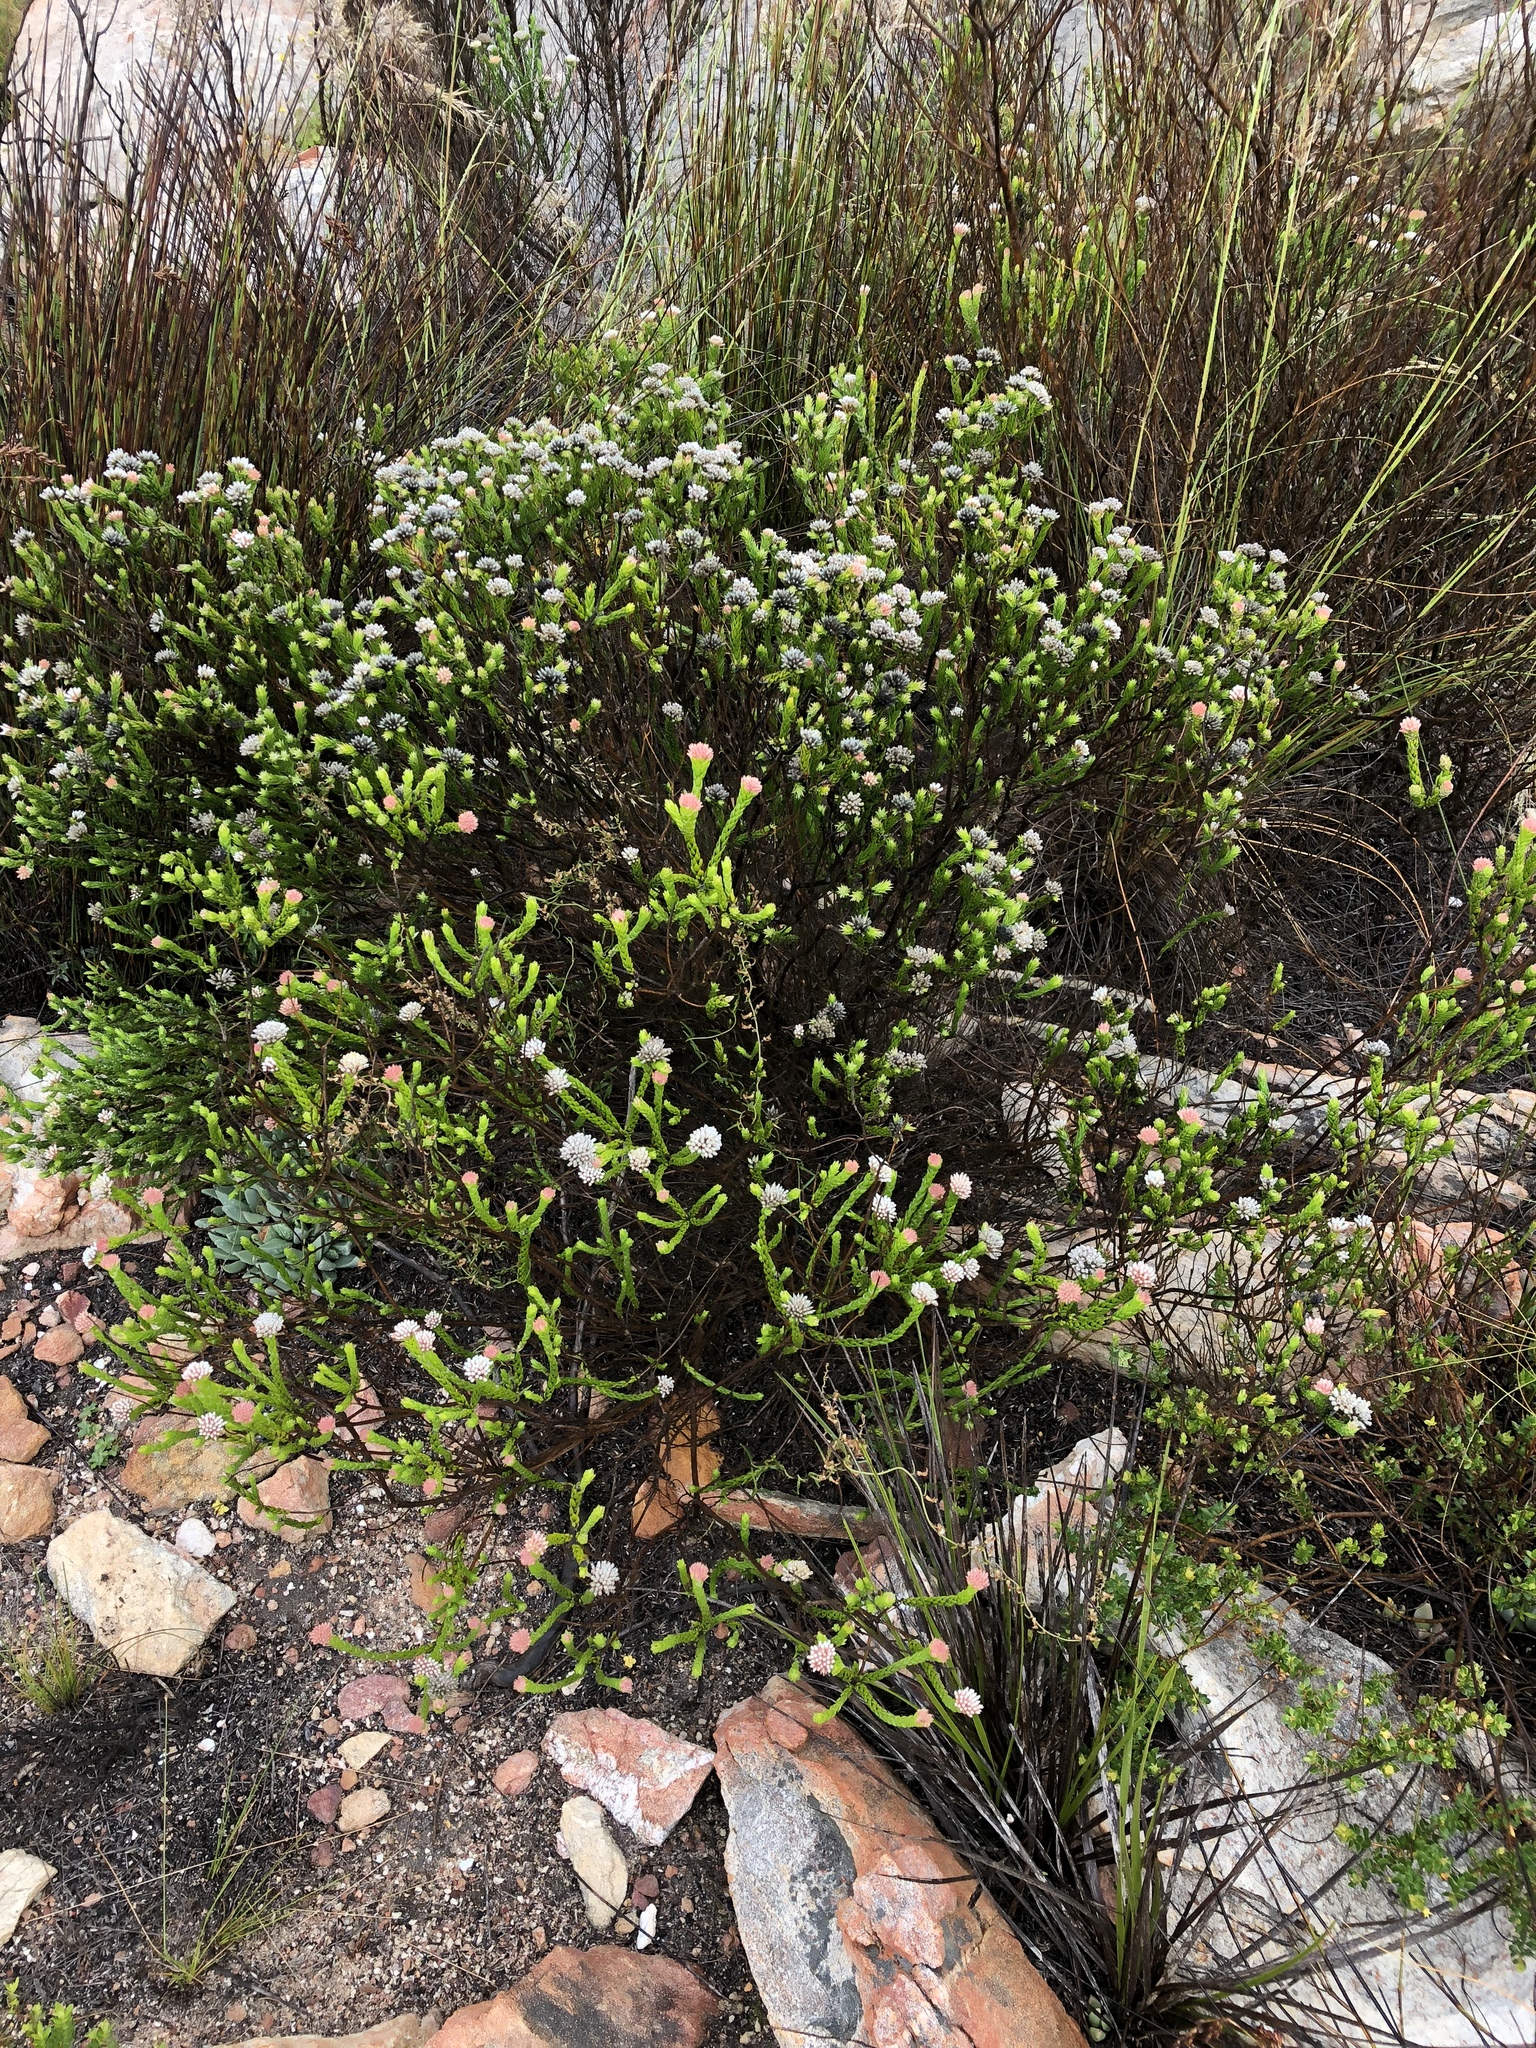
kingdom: Plantae
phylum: Tracheophyta
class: Magnoliopsida
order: Asterales
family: Asteraceae
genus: Metalasia
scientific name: Metalasia pulcherrima
